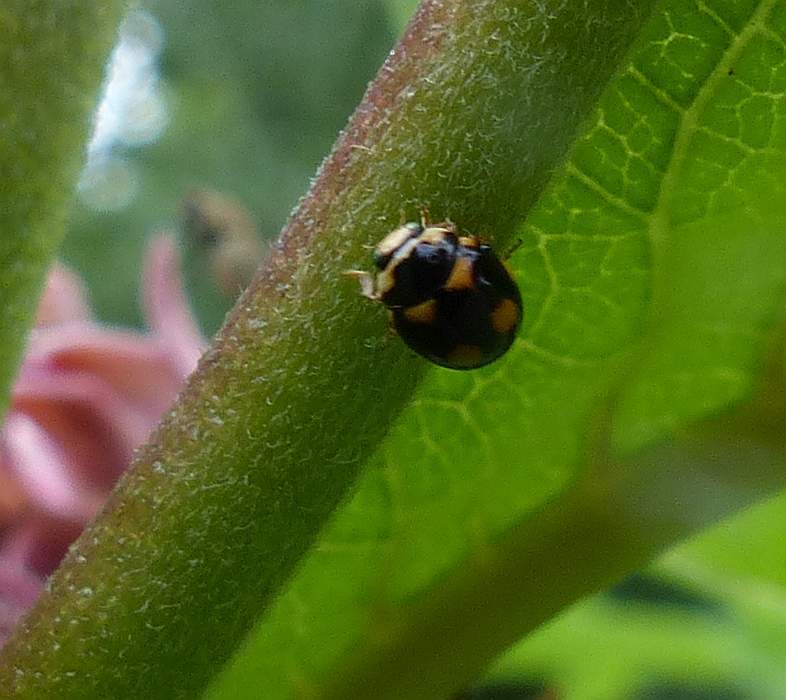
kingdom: Animalia
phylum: Arthropoda
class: Insecta
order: Coleoptera
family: Coccinellidae
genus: Brachiacantha
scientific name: Brachiacantha ursina
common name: Ursine spurleg lady beetle
